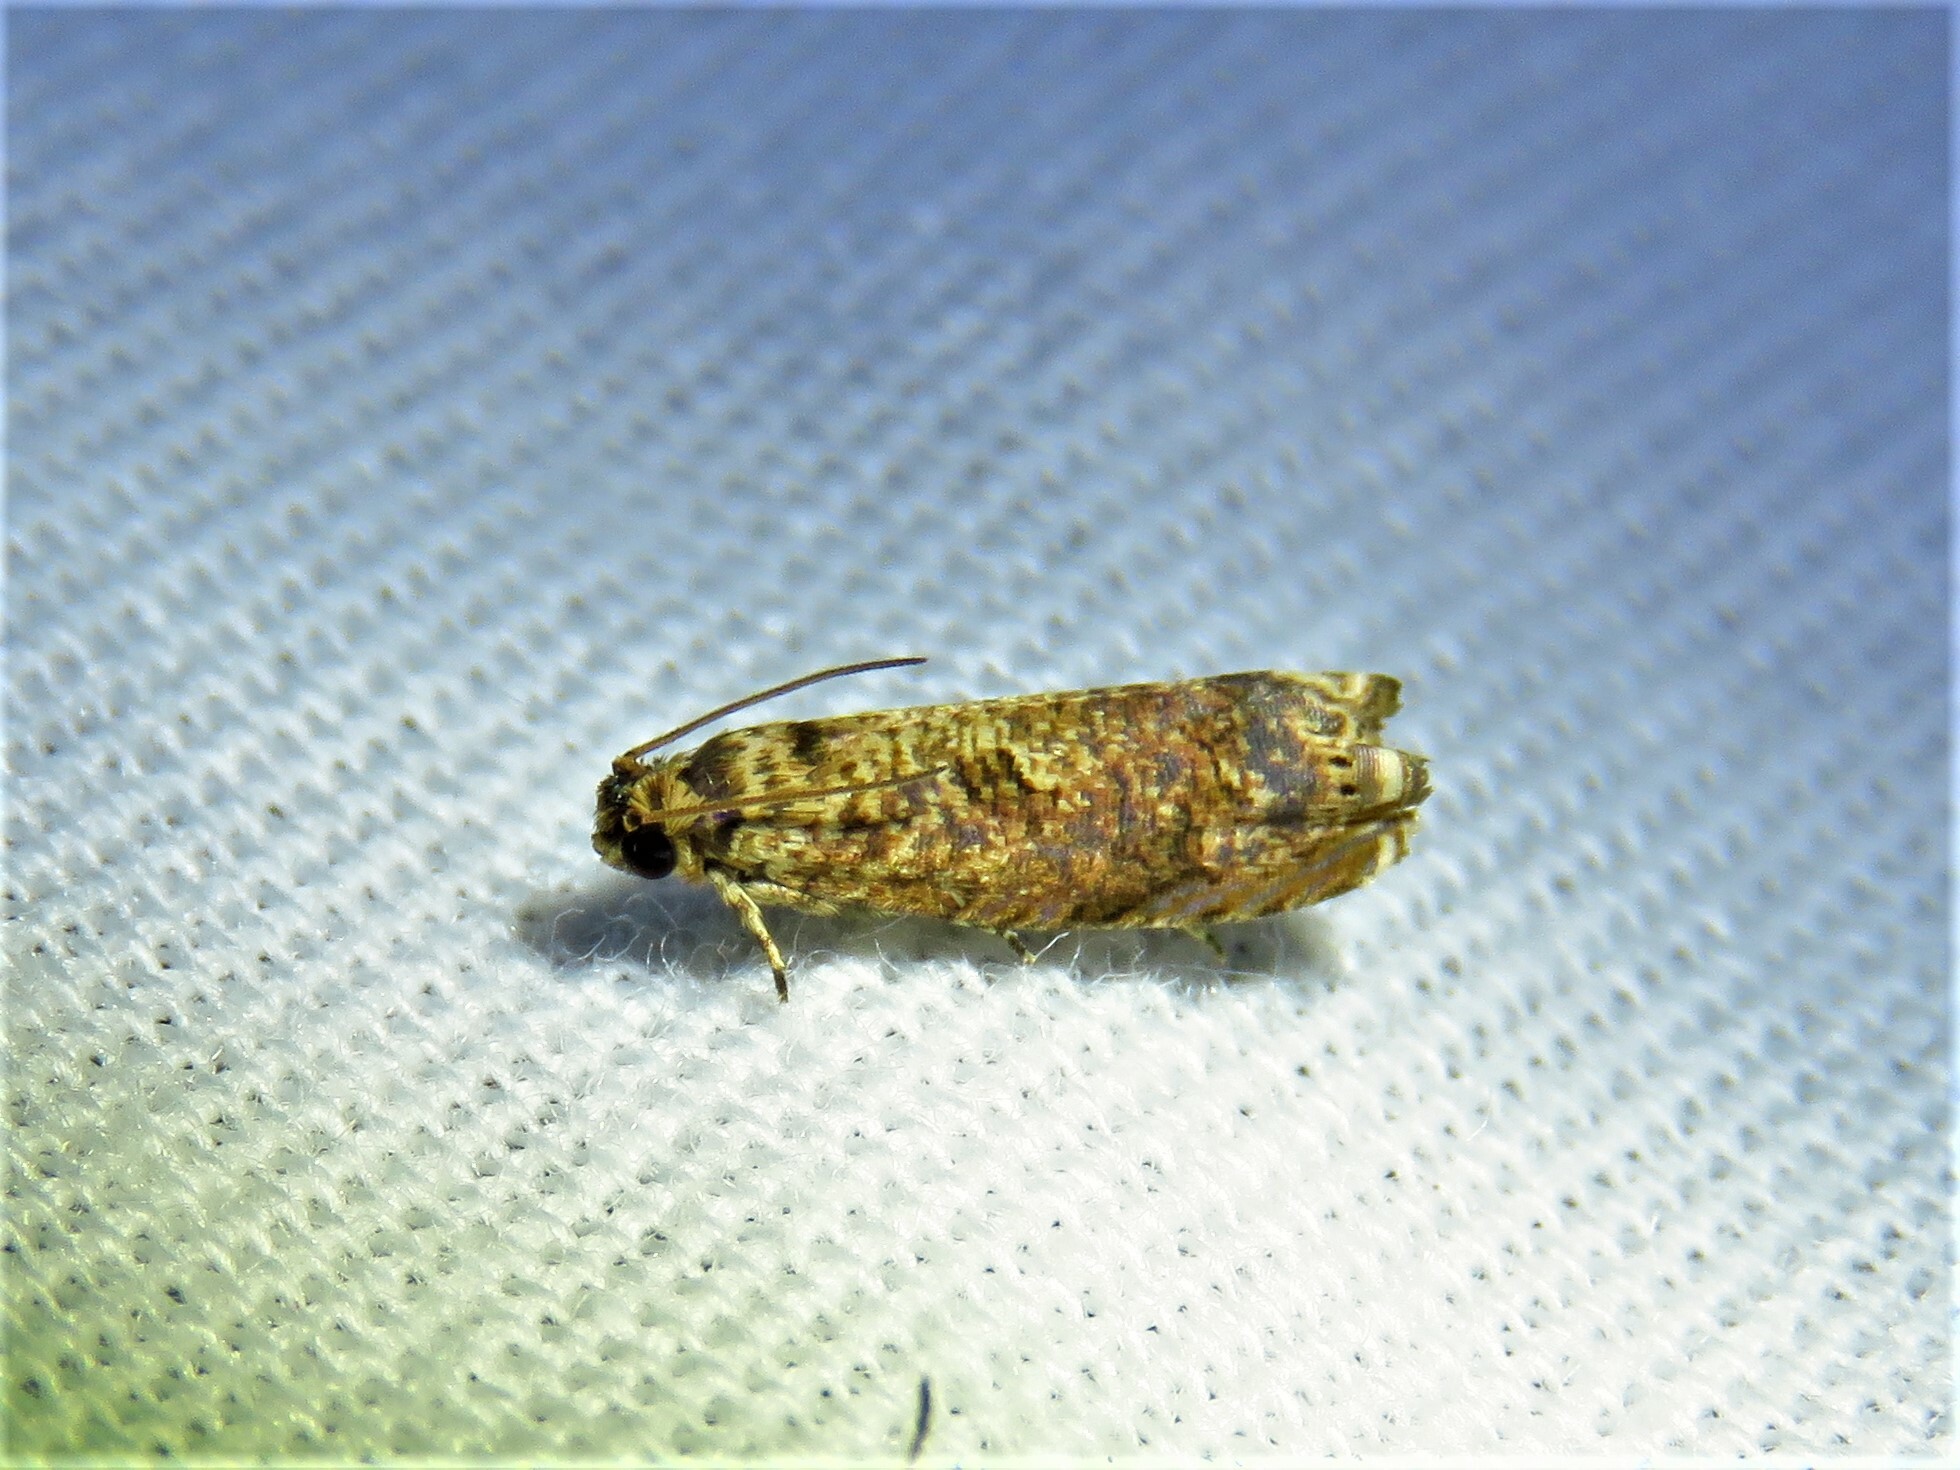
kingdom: Animalia
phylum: Arthropoda
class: Insecta
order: Lepidoptera
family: Tortricidae
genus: Episimus
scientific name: Episimus argutana
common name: Sumac leaftier moth
